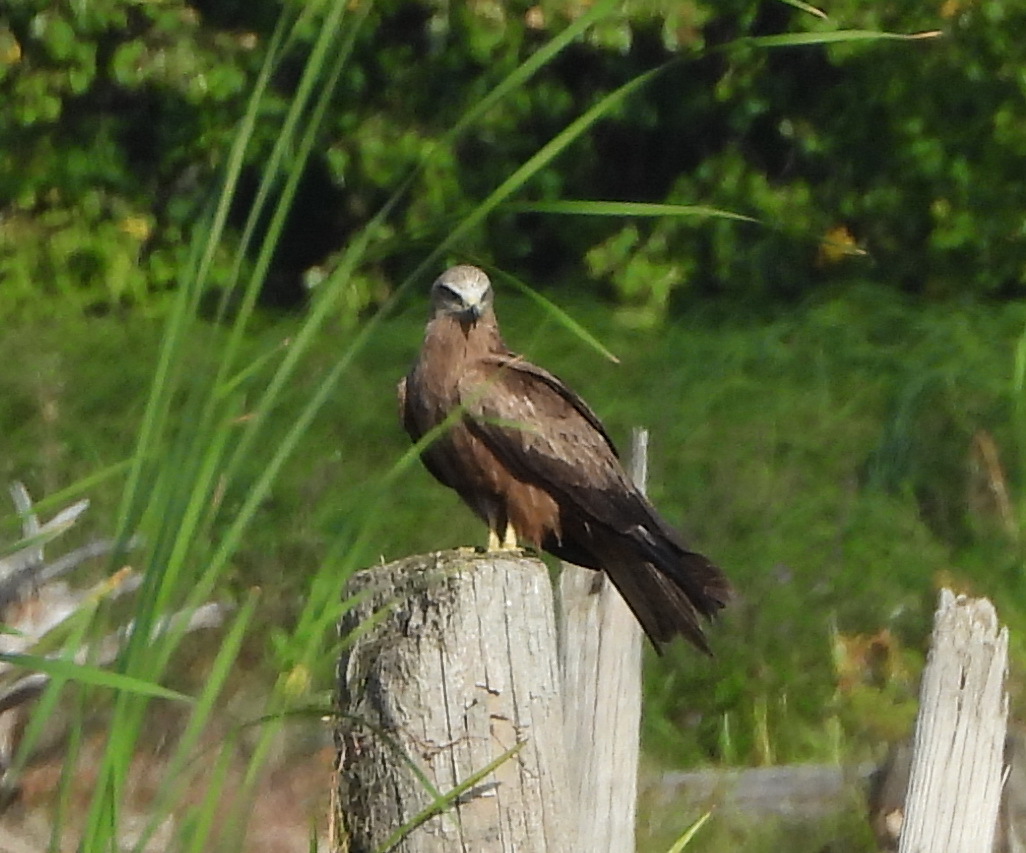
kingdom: Animalia
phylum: Chordata
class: Aves
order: Accipitriformes
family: Accipitridae
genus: Milvus
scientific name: Milvus migrans
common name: Black kite
